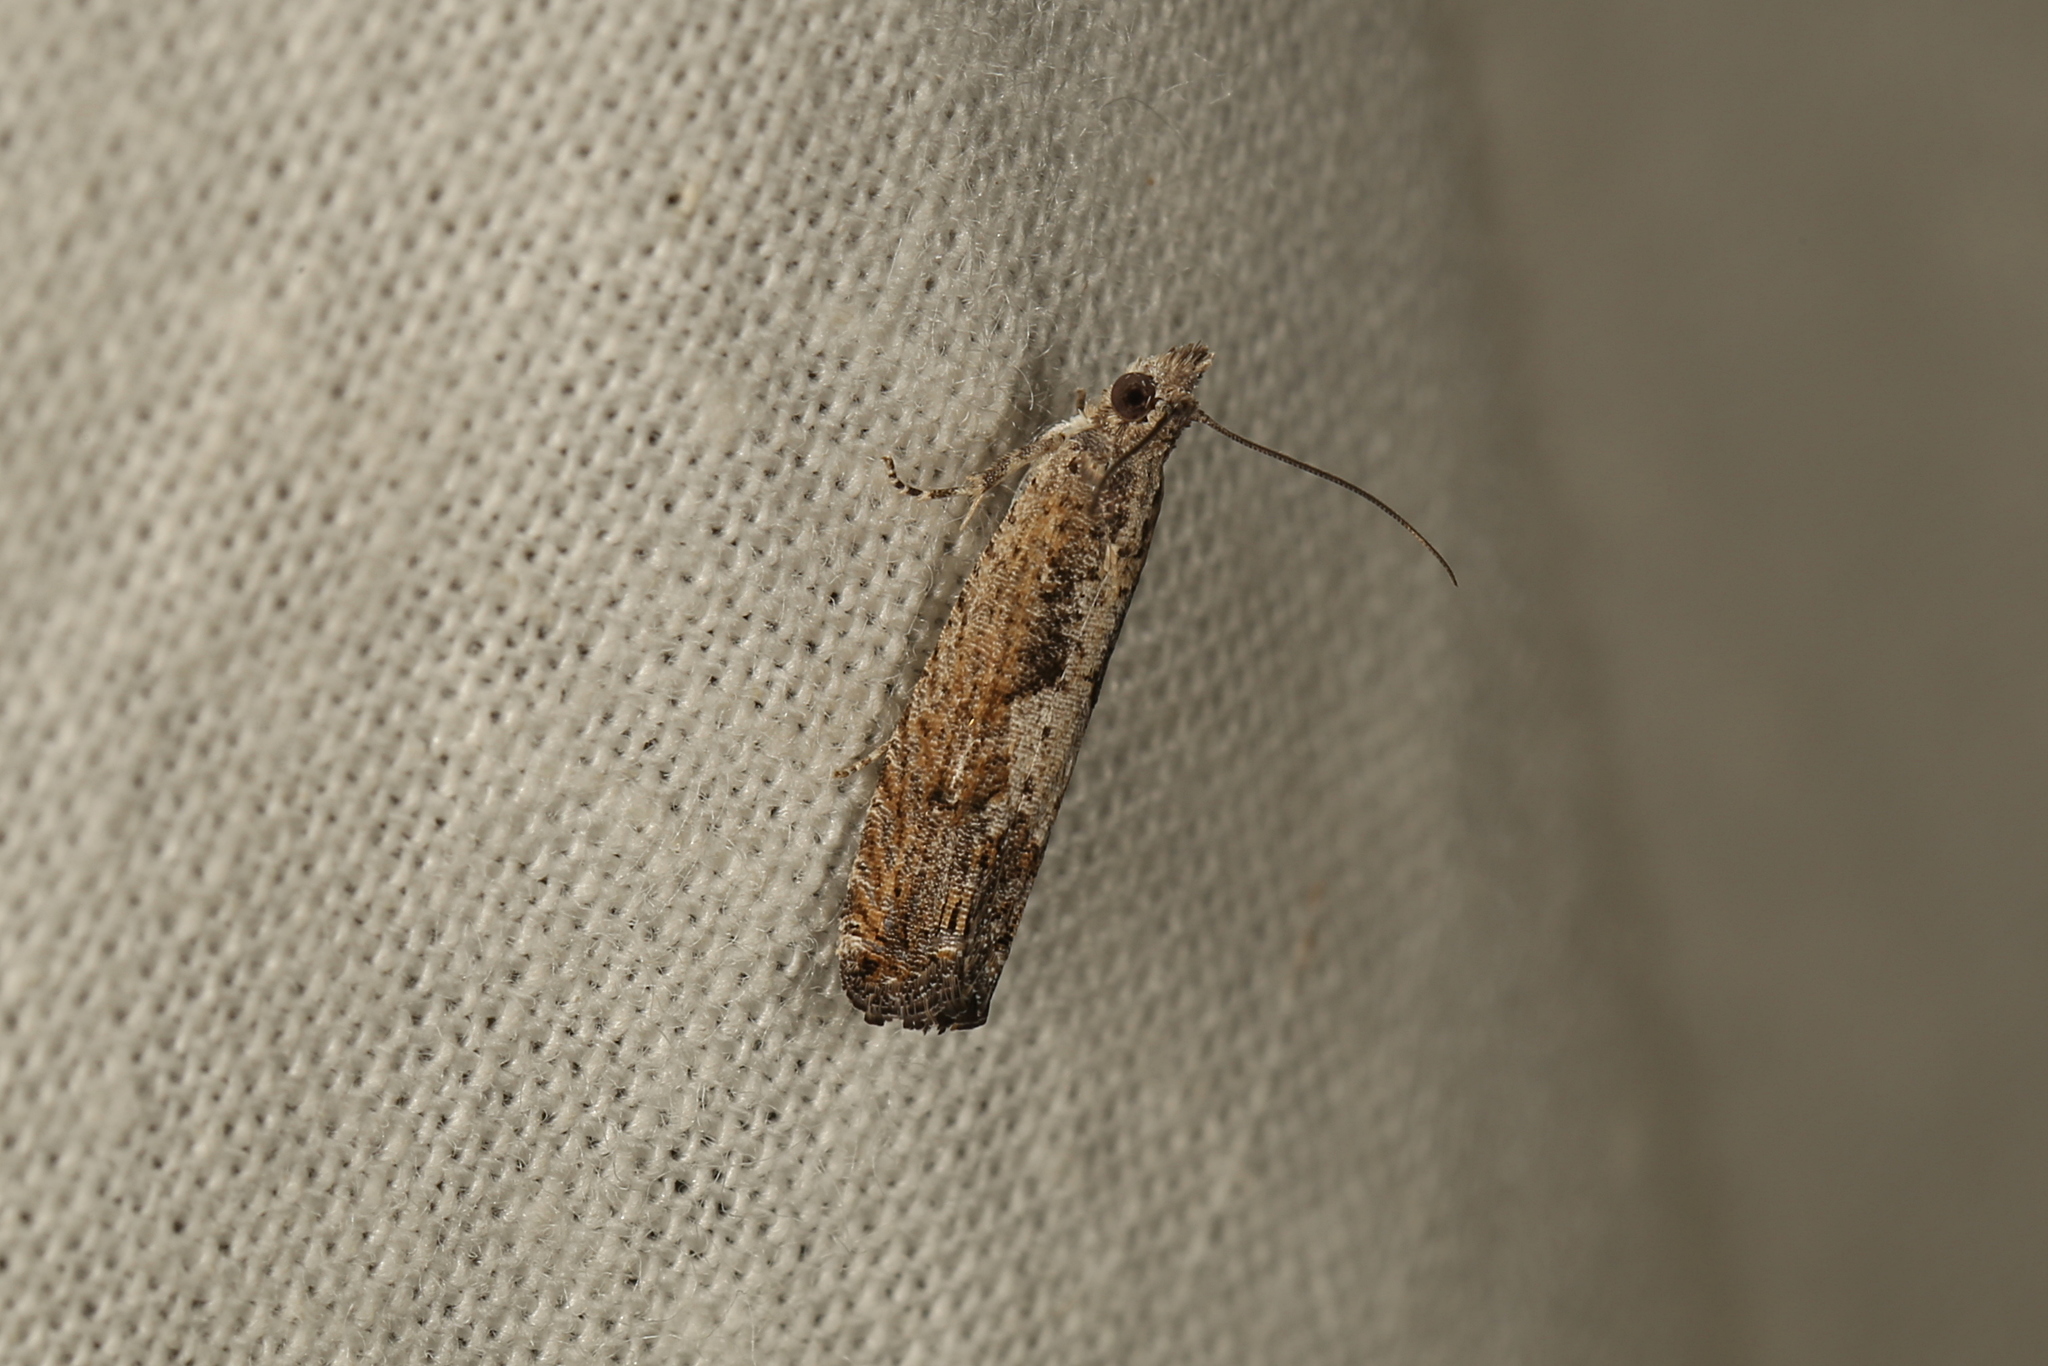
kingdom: Animalia
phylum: Arthropoda
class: Insecta
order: Lepidoptera
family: Tortricidae
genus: Strepsicrates
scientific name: Strepsicrates macropetana
